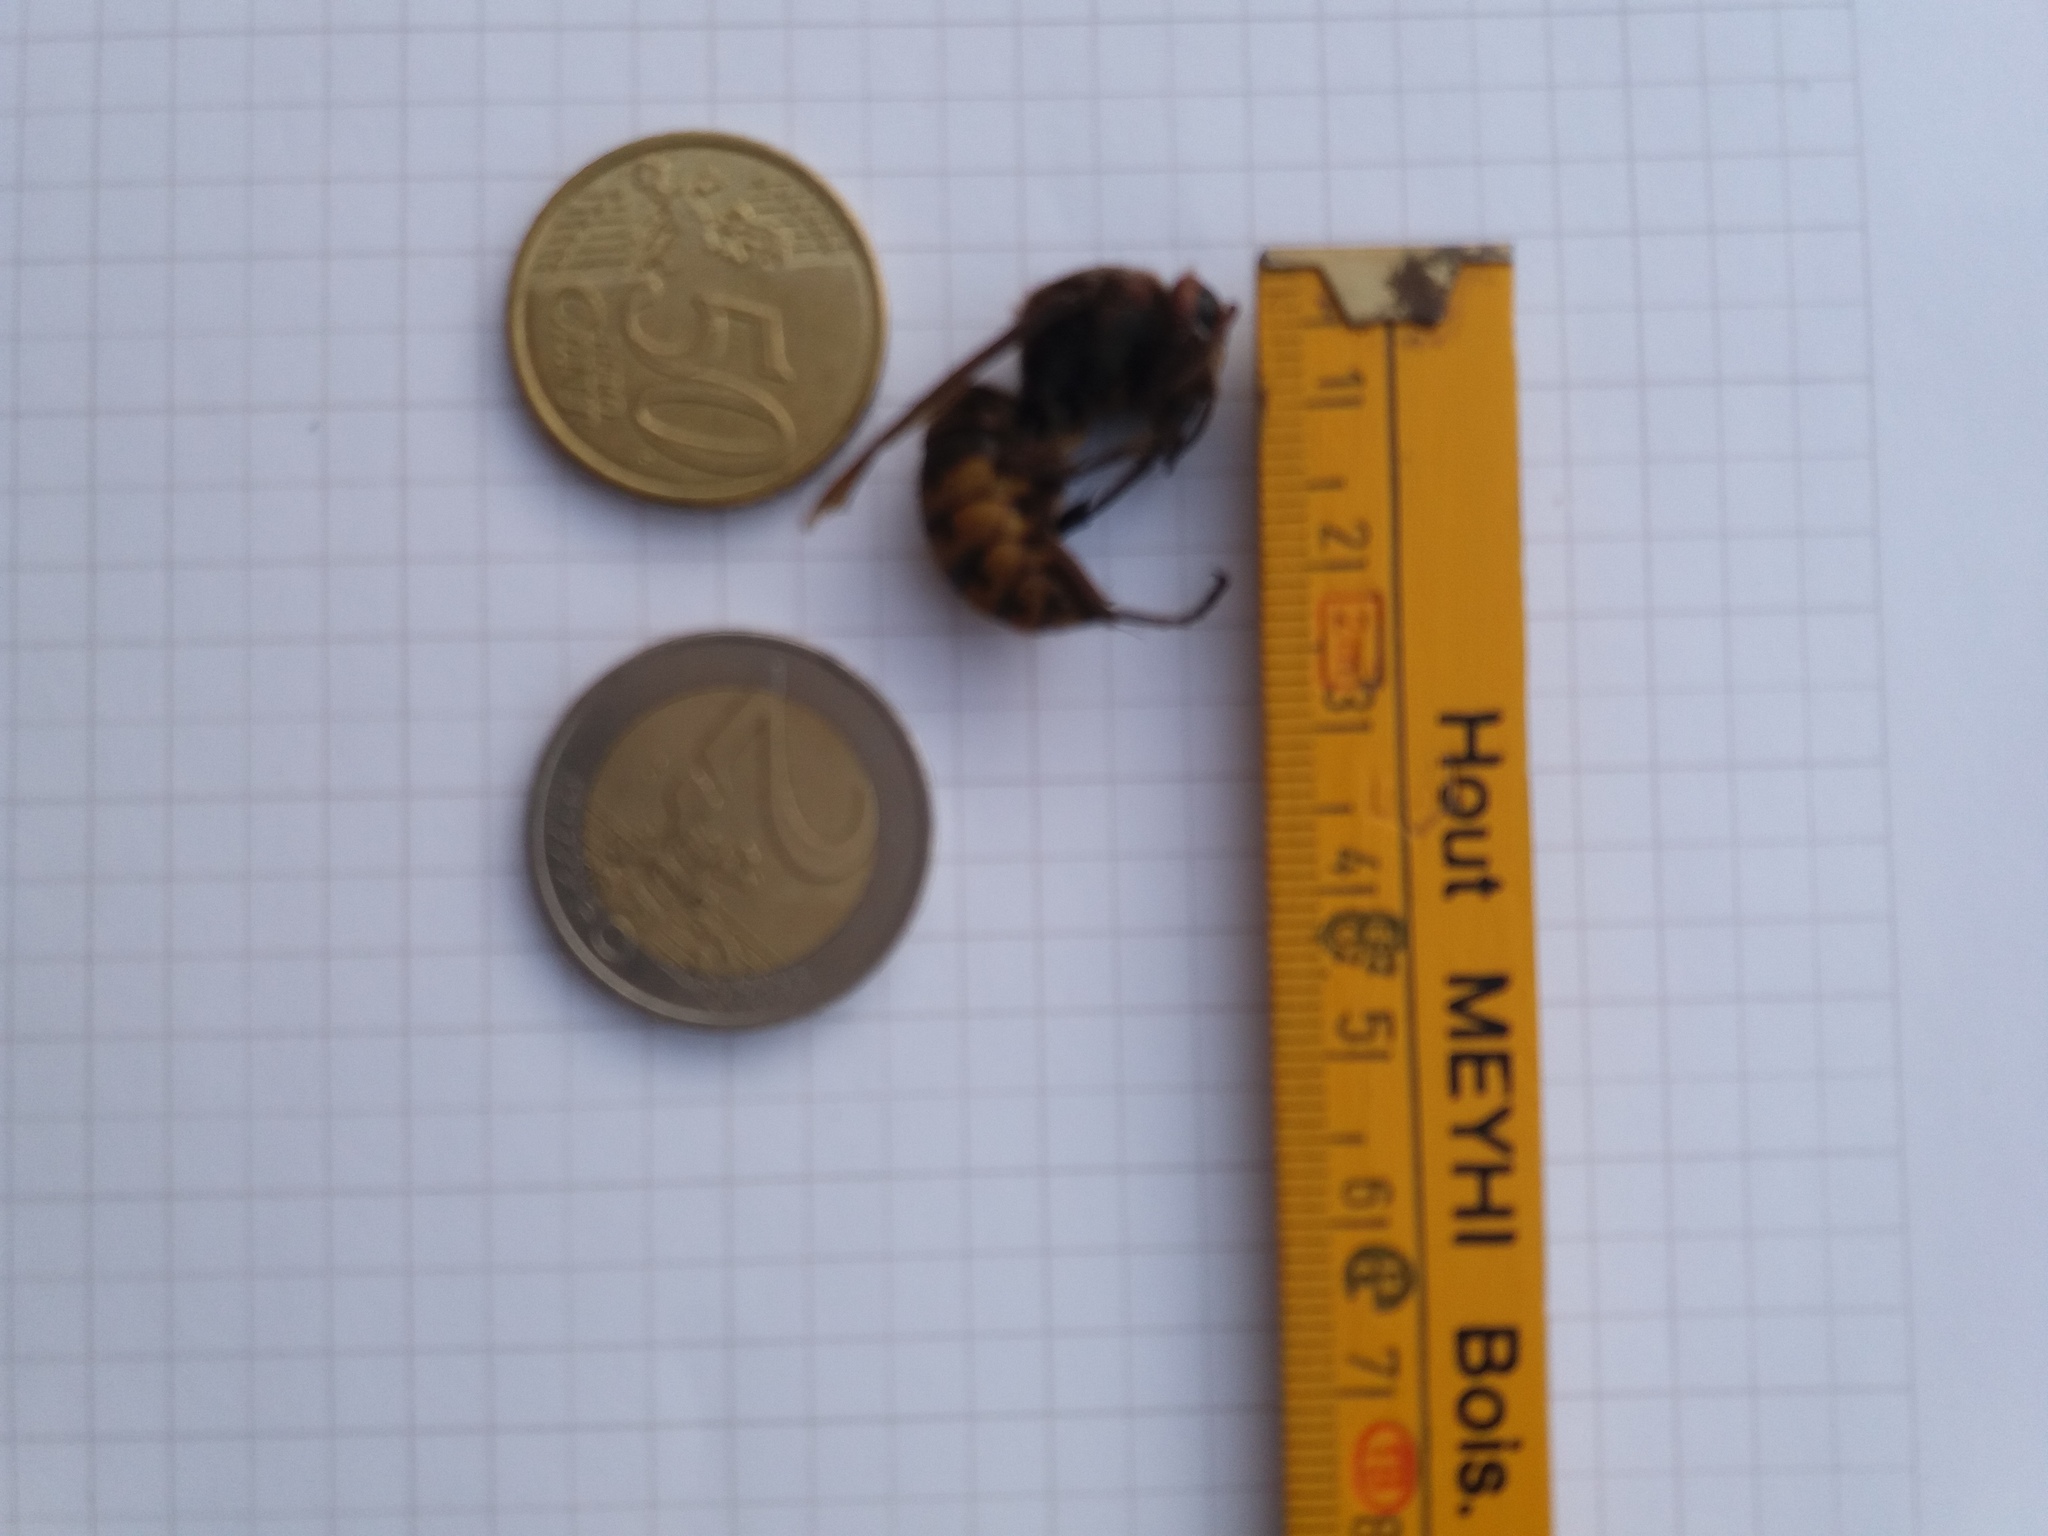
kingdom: Animalia
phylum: Arthropoda
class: Insecta
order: Hymenoptera
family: Vespidae
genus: Vespa
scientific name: Vespa crabro
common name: Hornet
